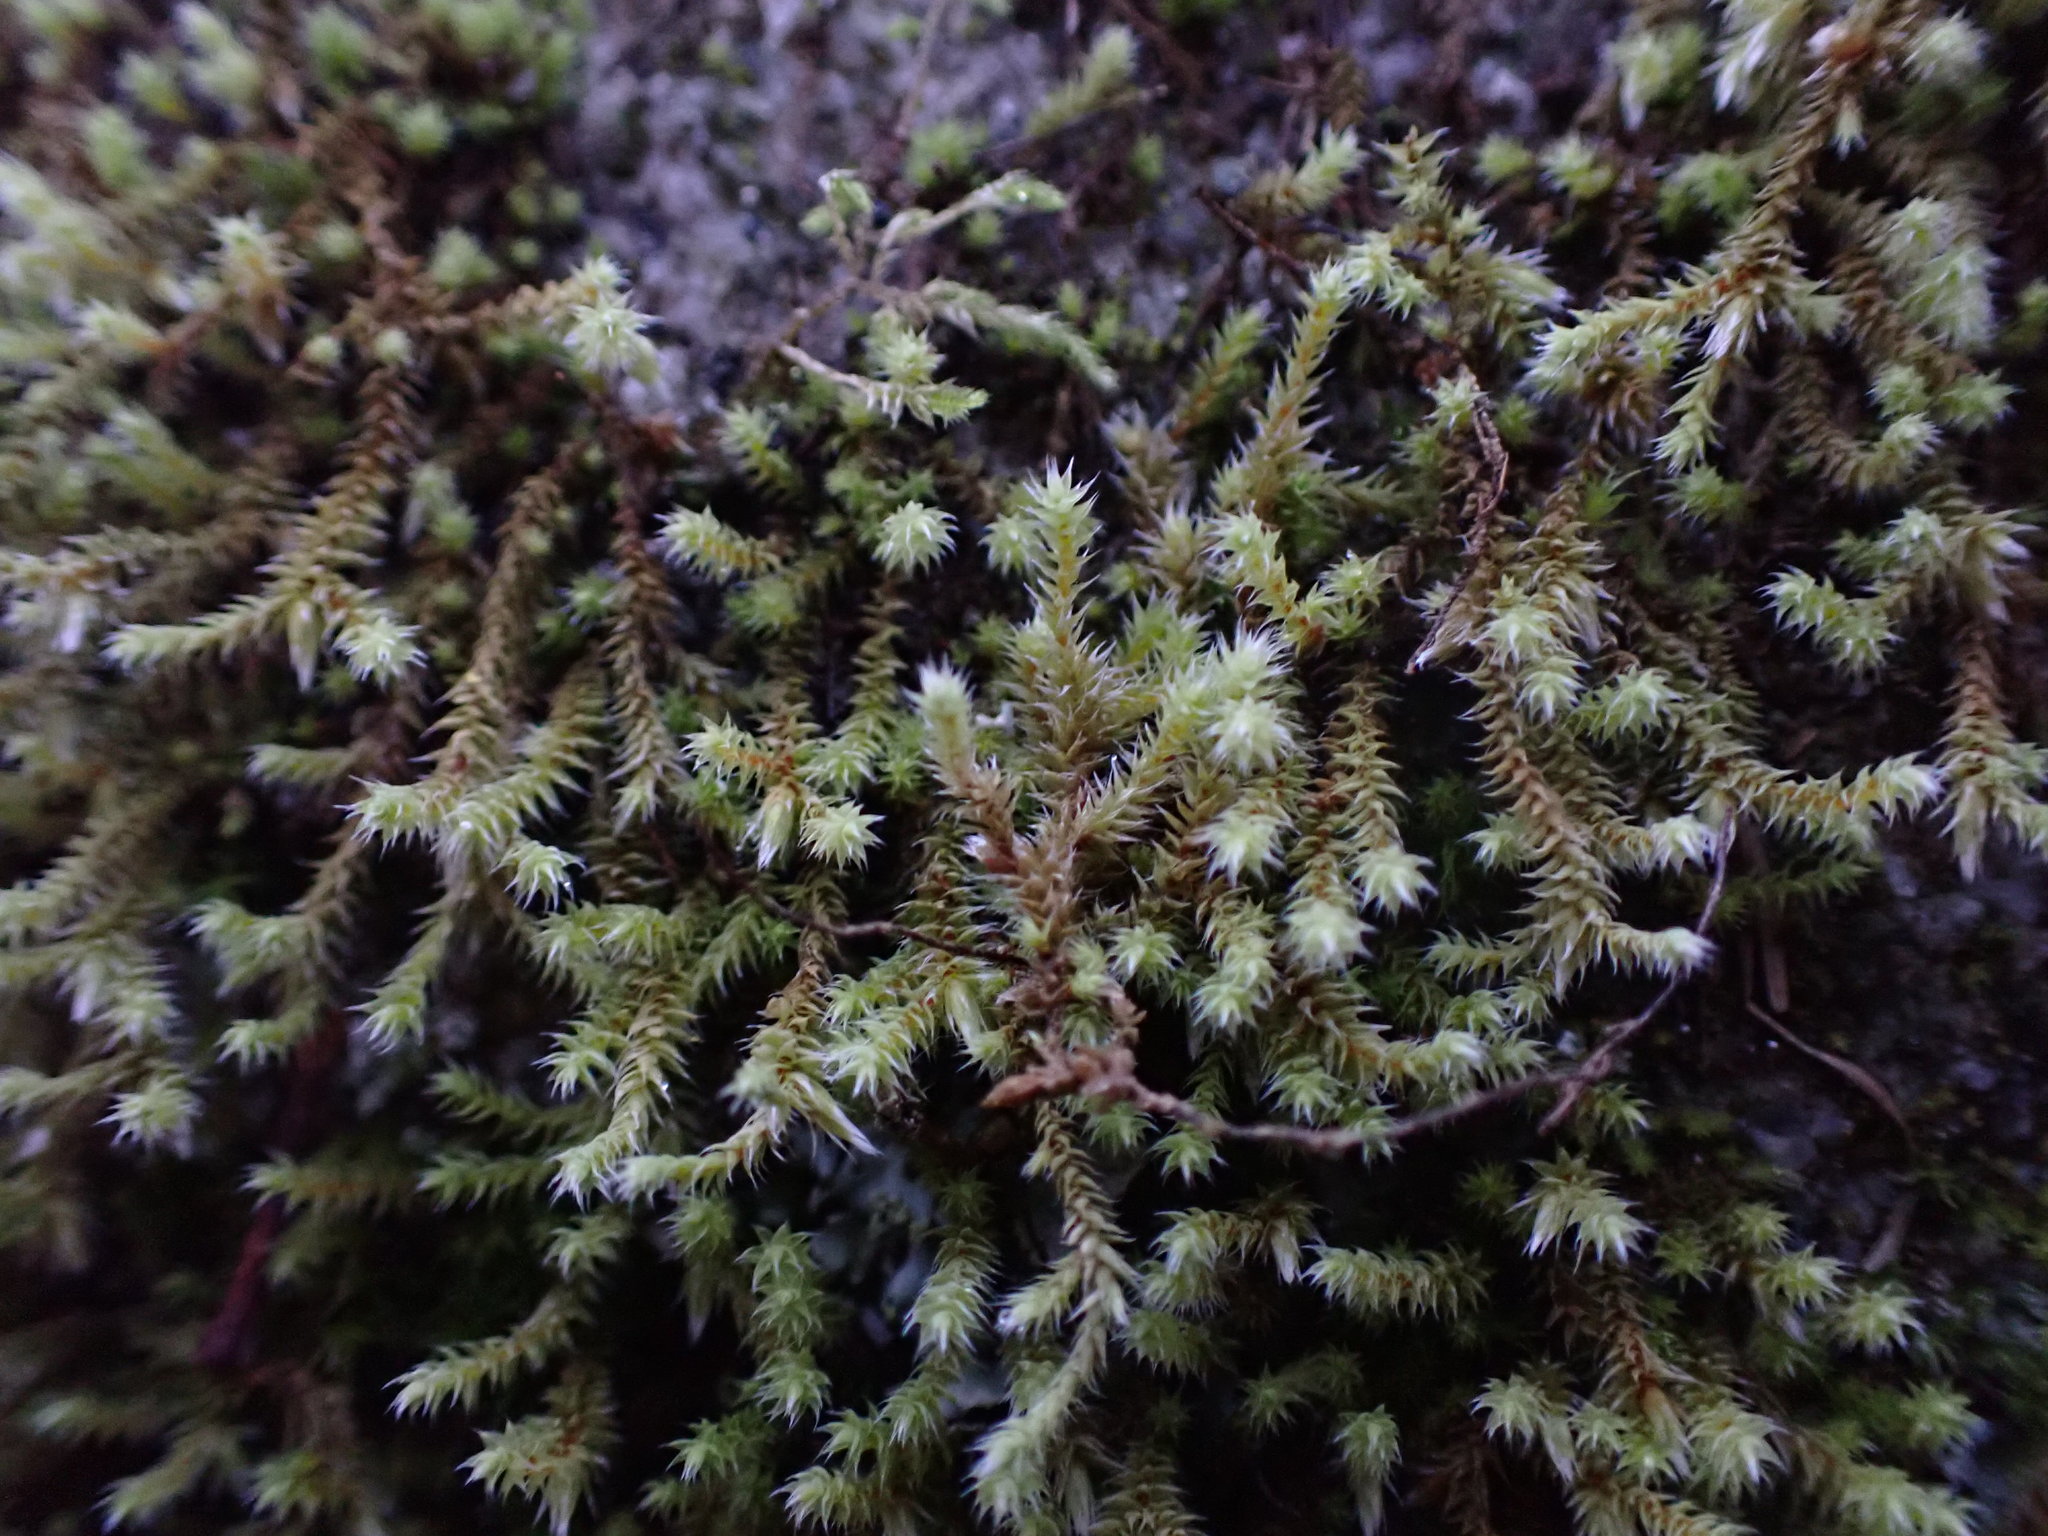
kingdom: Plantae
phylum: Bryophyta
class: Bryopsida
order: Hedwigiales
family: Hedwigiaceae
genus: Hedwigia
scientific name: Hedwigia stellata
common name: Starry hoar-moss
